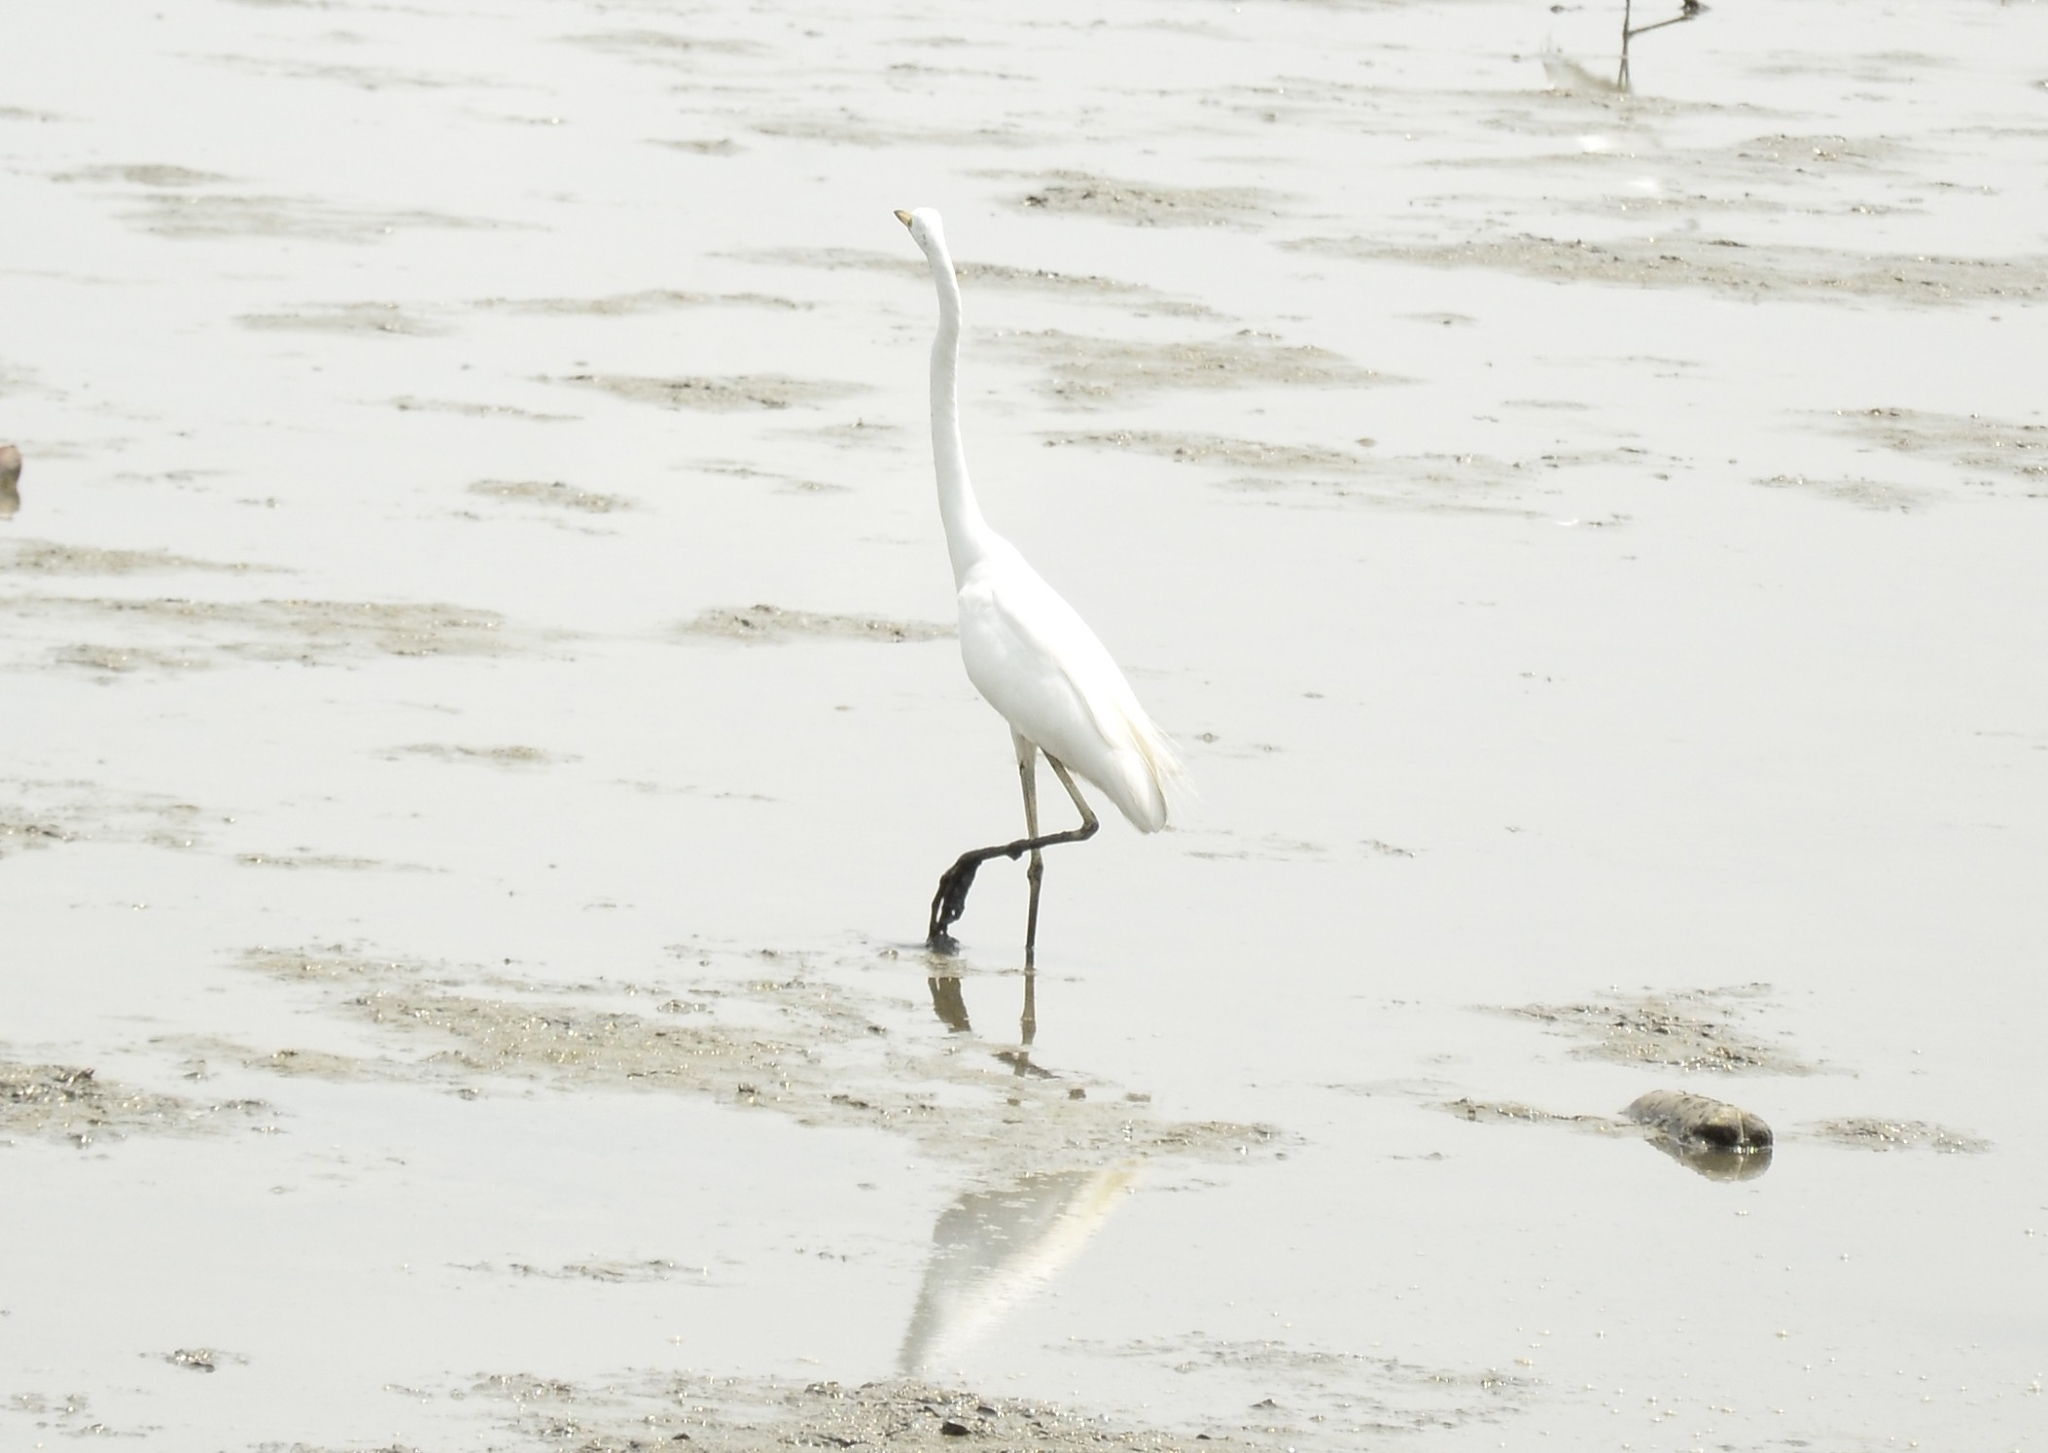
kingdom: Animalia
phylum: Chordata
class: Aves
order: Pelecaniformes
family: Ardeidae
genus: Ardea
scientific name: Ardea alba
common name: Great egret
